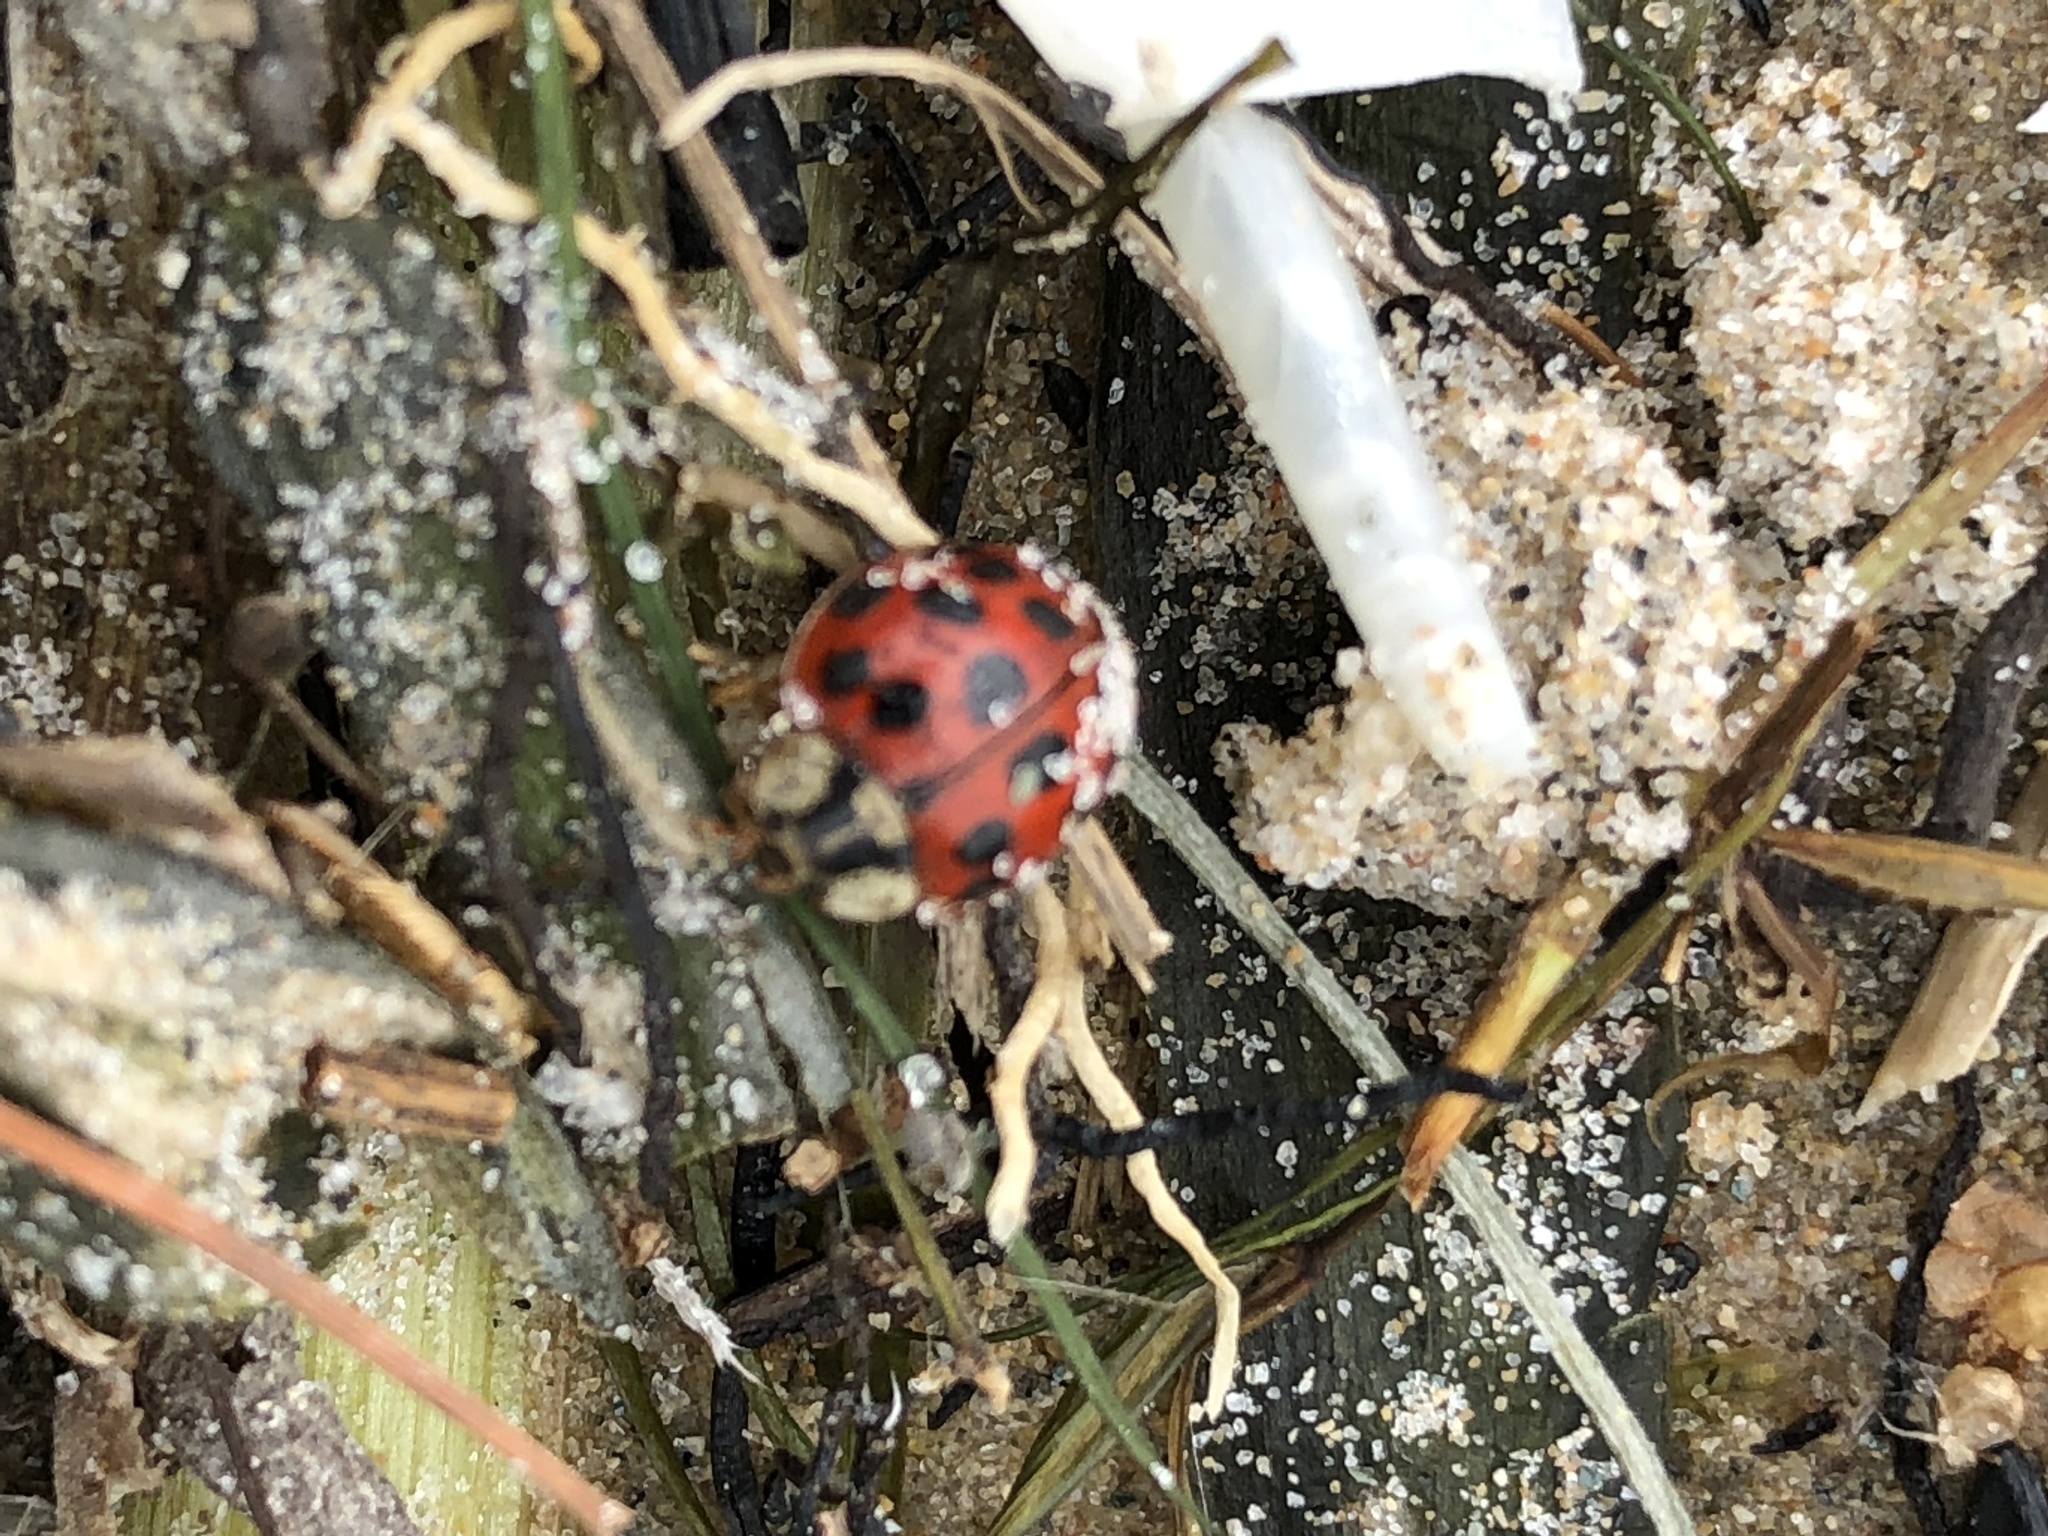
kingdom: Animalia
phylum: Arthropoda
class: Insecta
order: Coleoptera
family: Coccinellidae
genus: Harmonia
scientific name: Harmonia axyridis
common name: Harlequin ladybird
